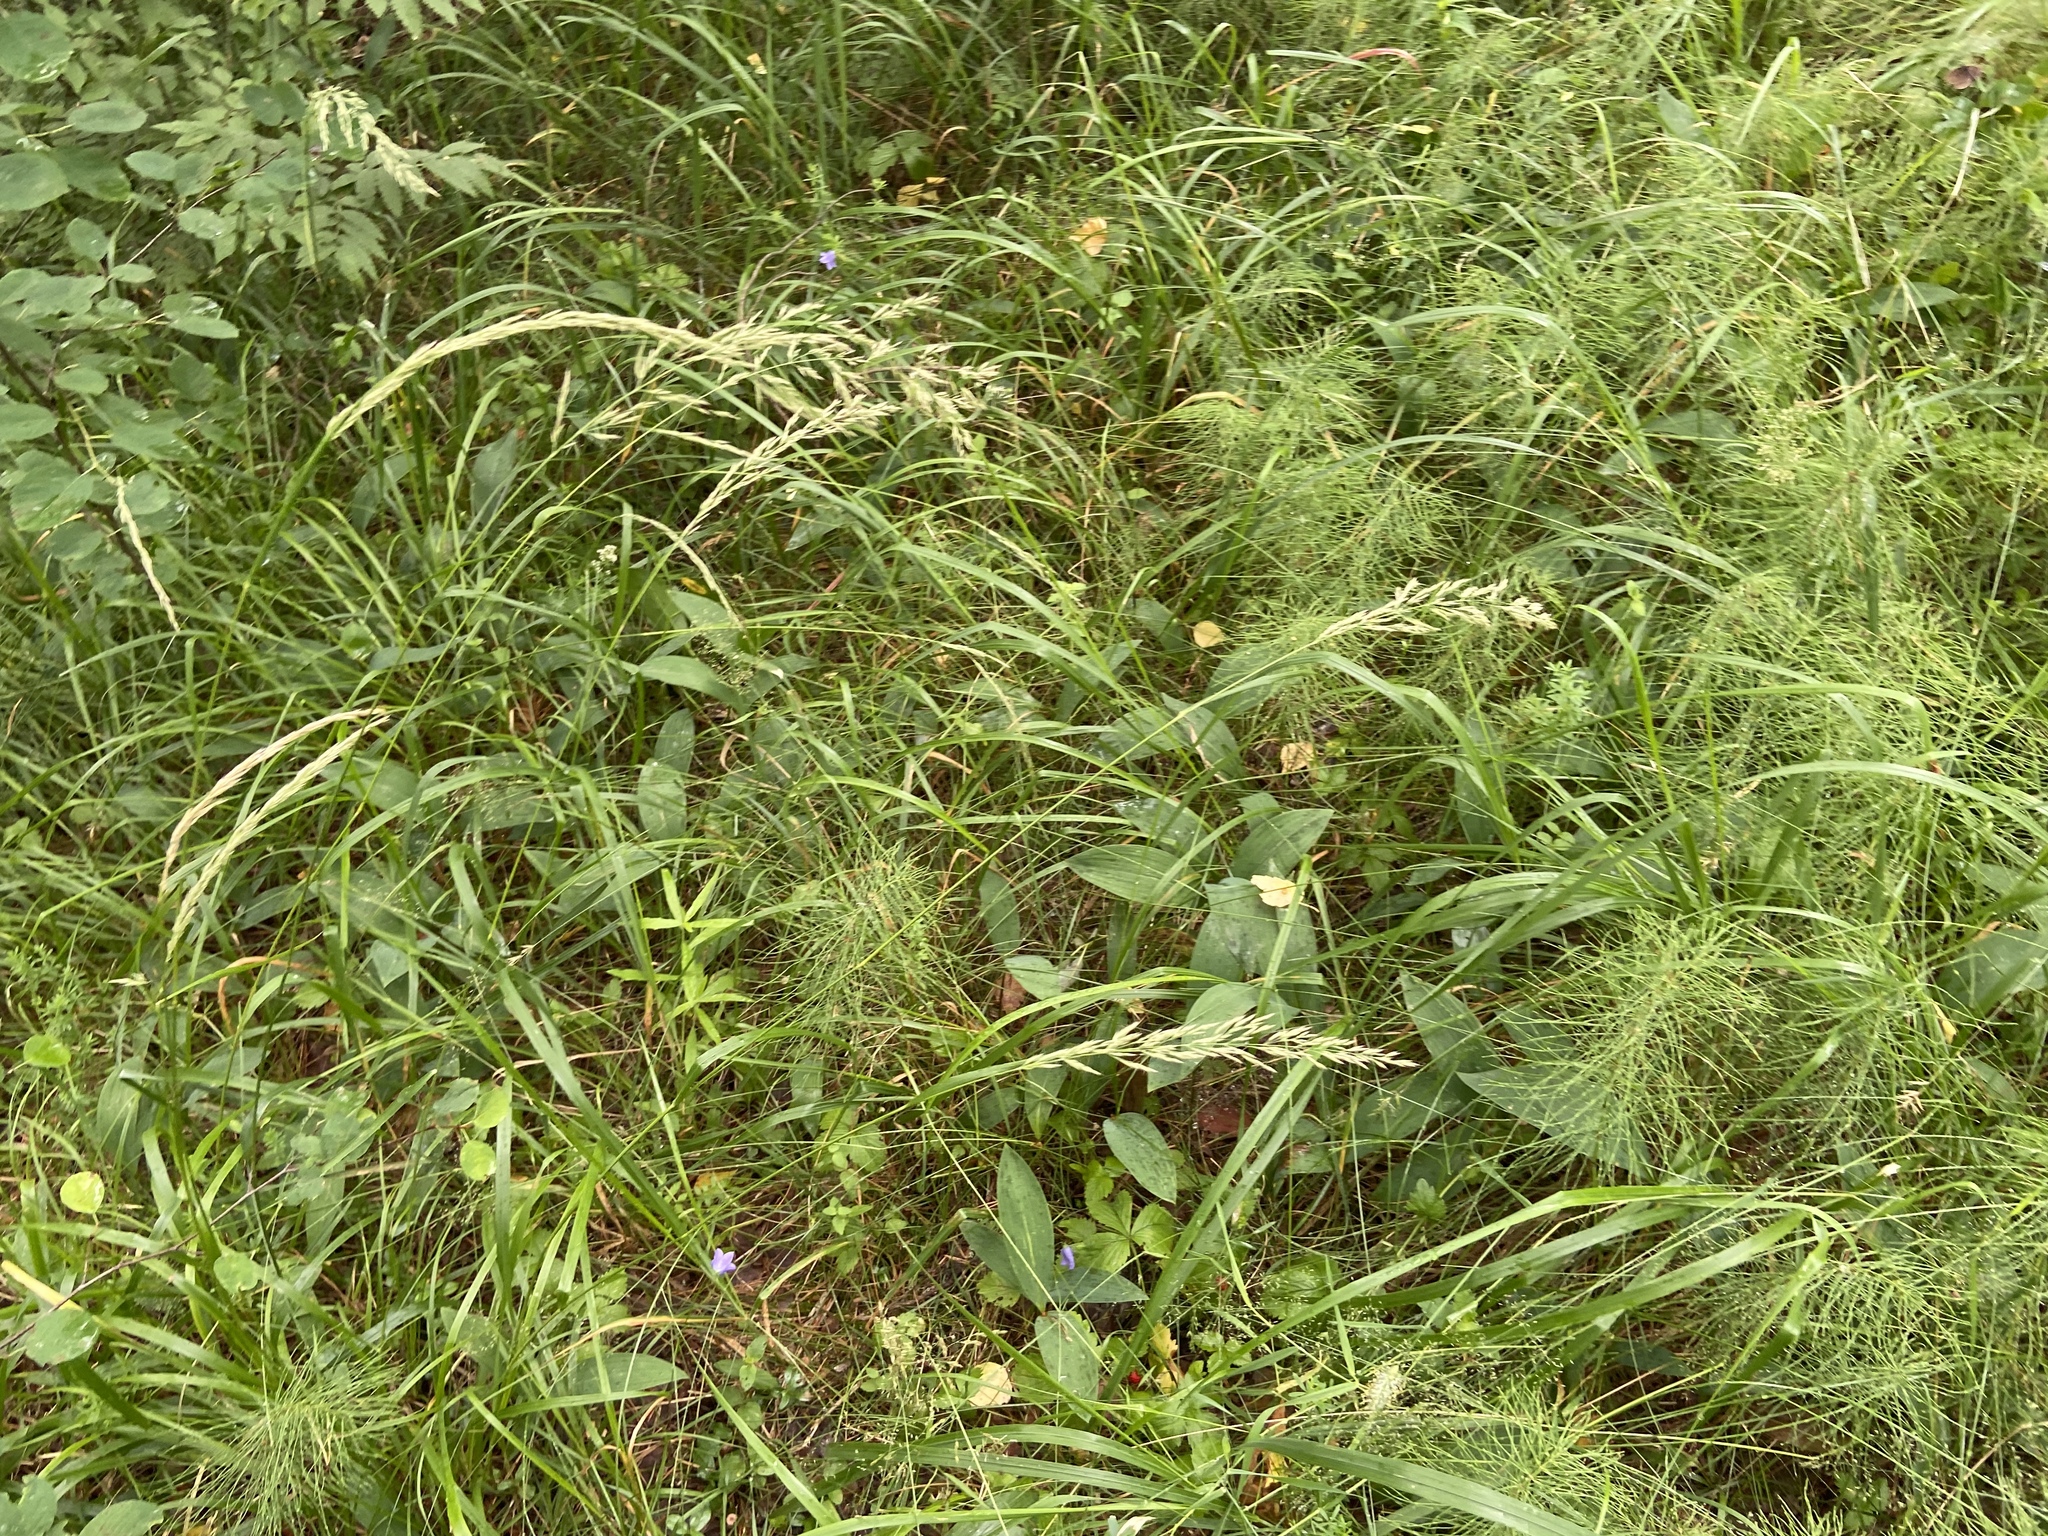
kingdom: Plantae
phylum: Tracheophyta
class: Liliopsida
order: Poales
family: Poaceae
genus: Calamagrostis
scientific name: Calamagrostis arundinacea
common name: Metskastik
